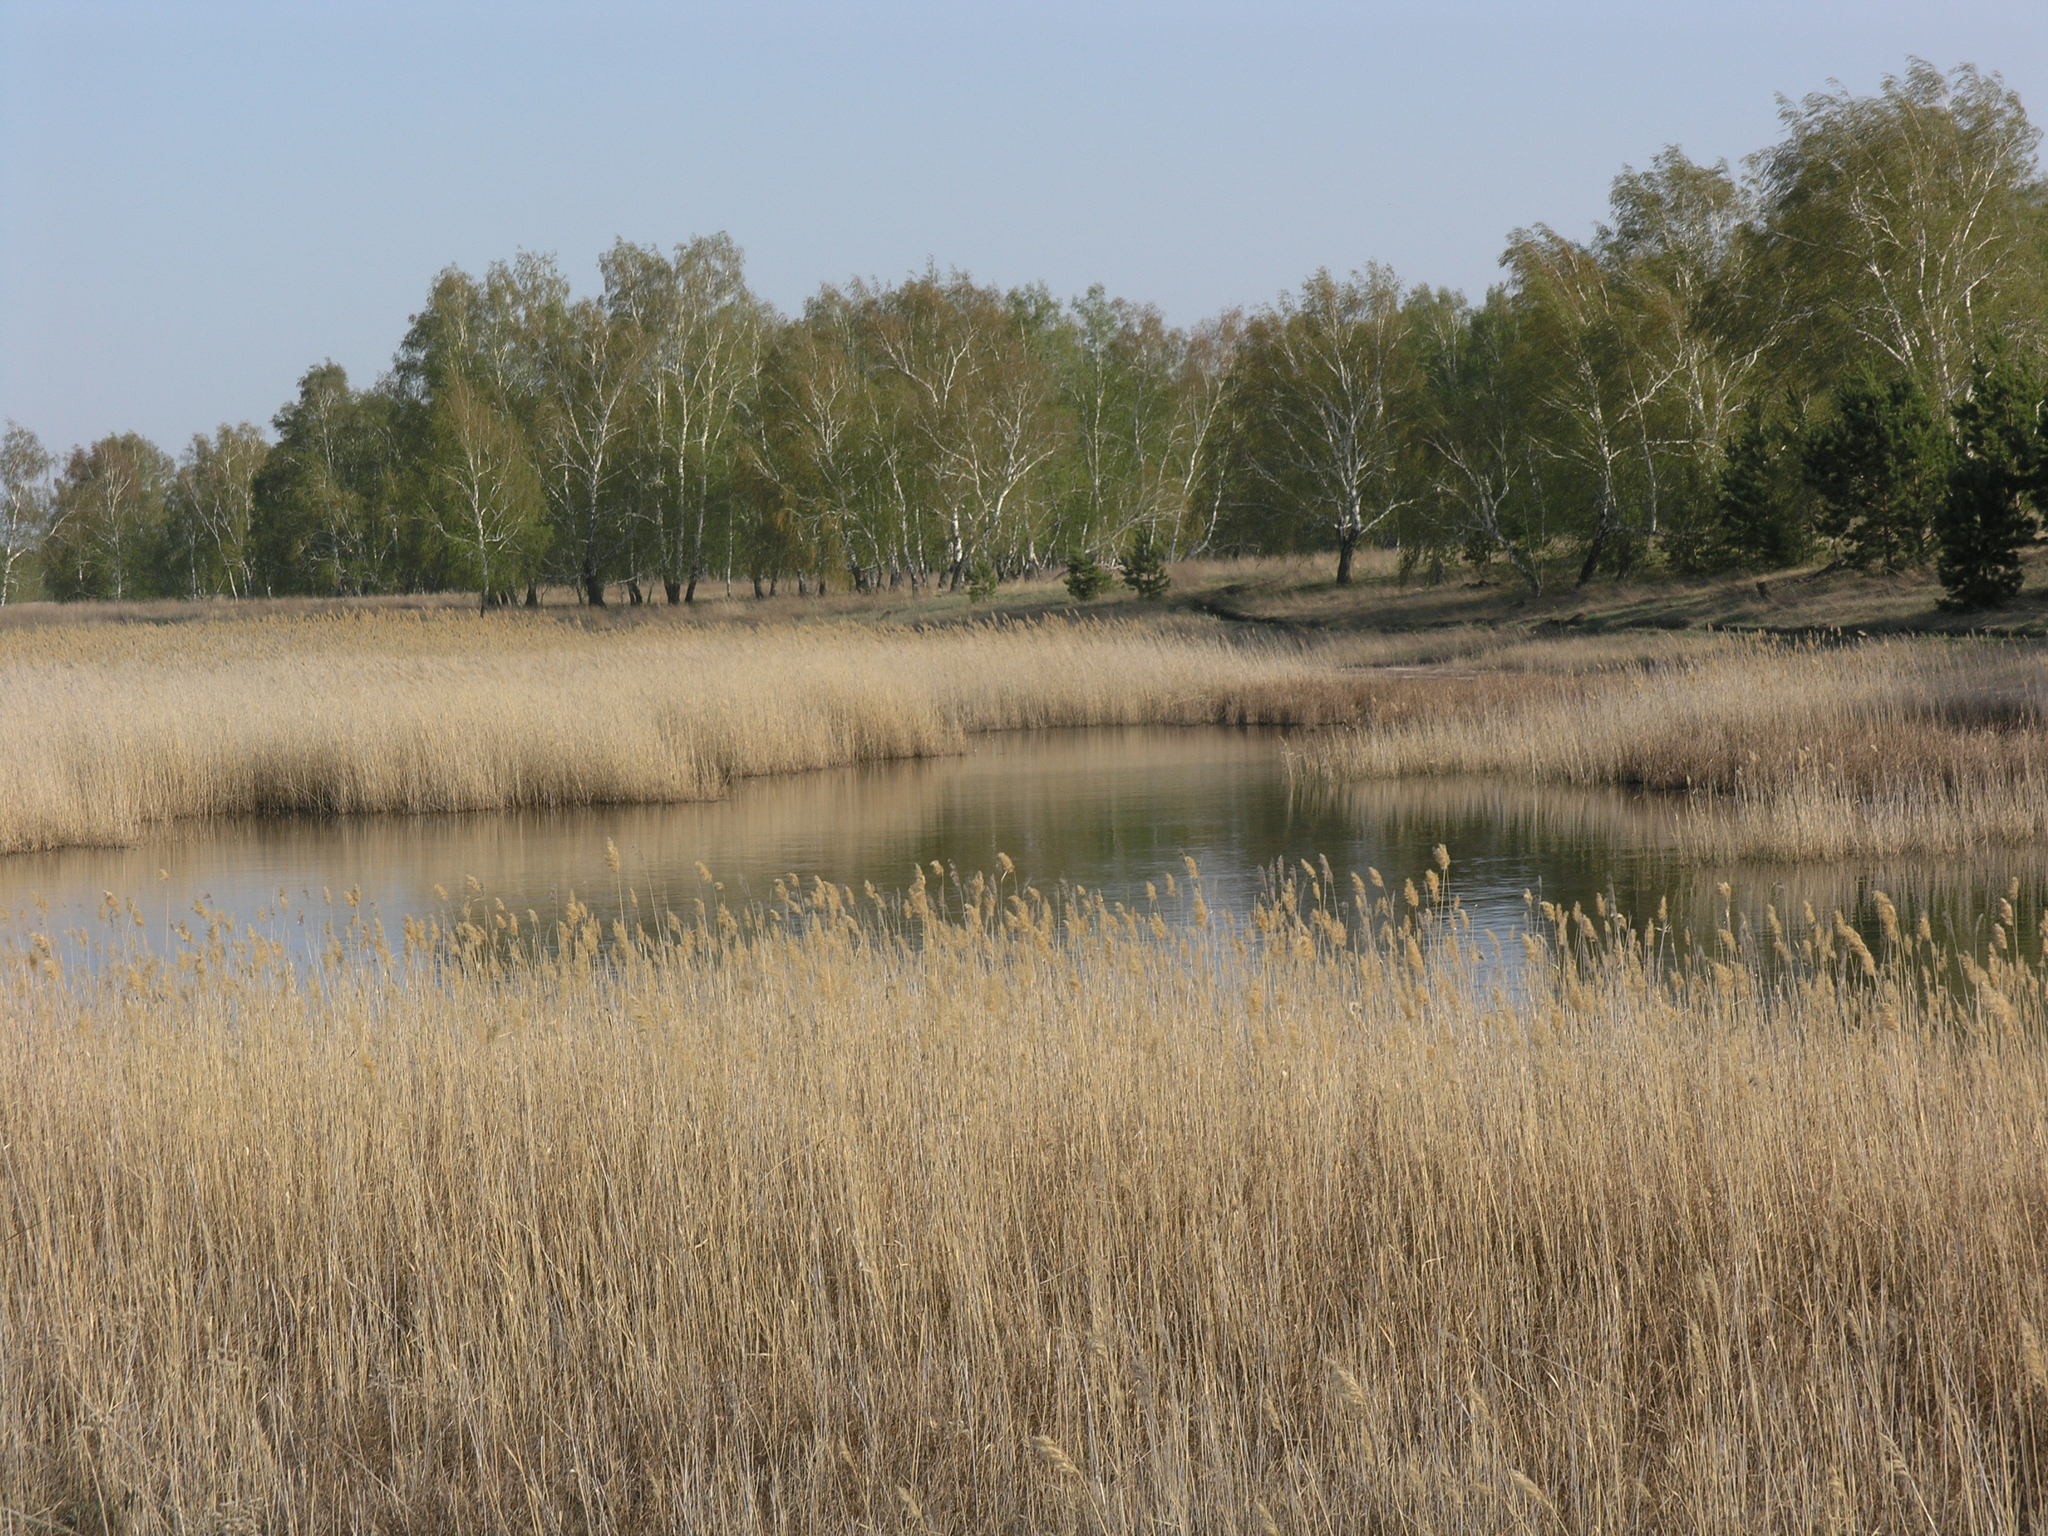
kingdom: Plantae
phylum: Tracheophyta
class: Magnoliopsida
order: Fagales
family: Betulaceae
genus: Betula
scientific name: Betula pendula
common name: Silver birch
